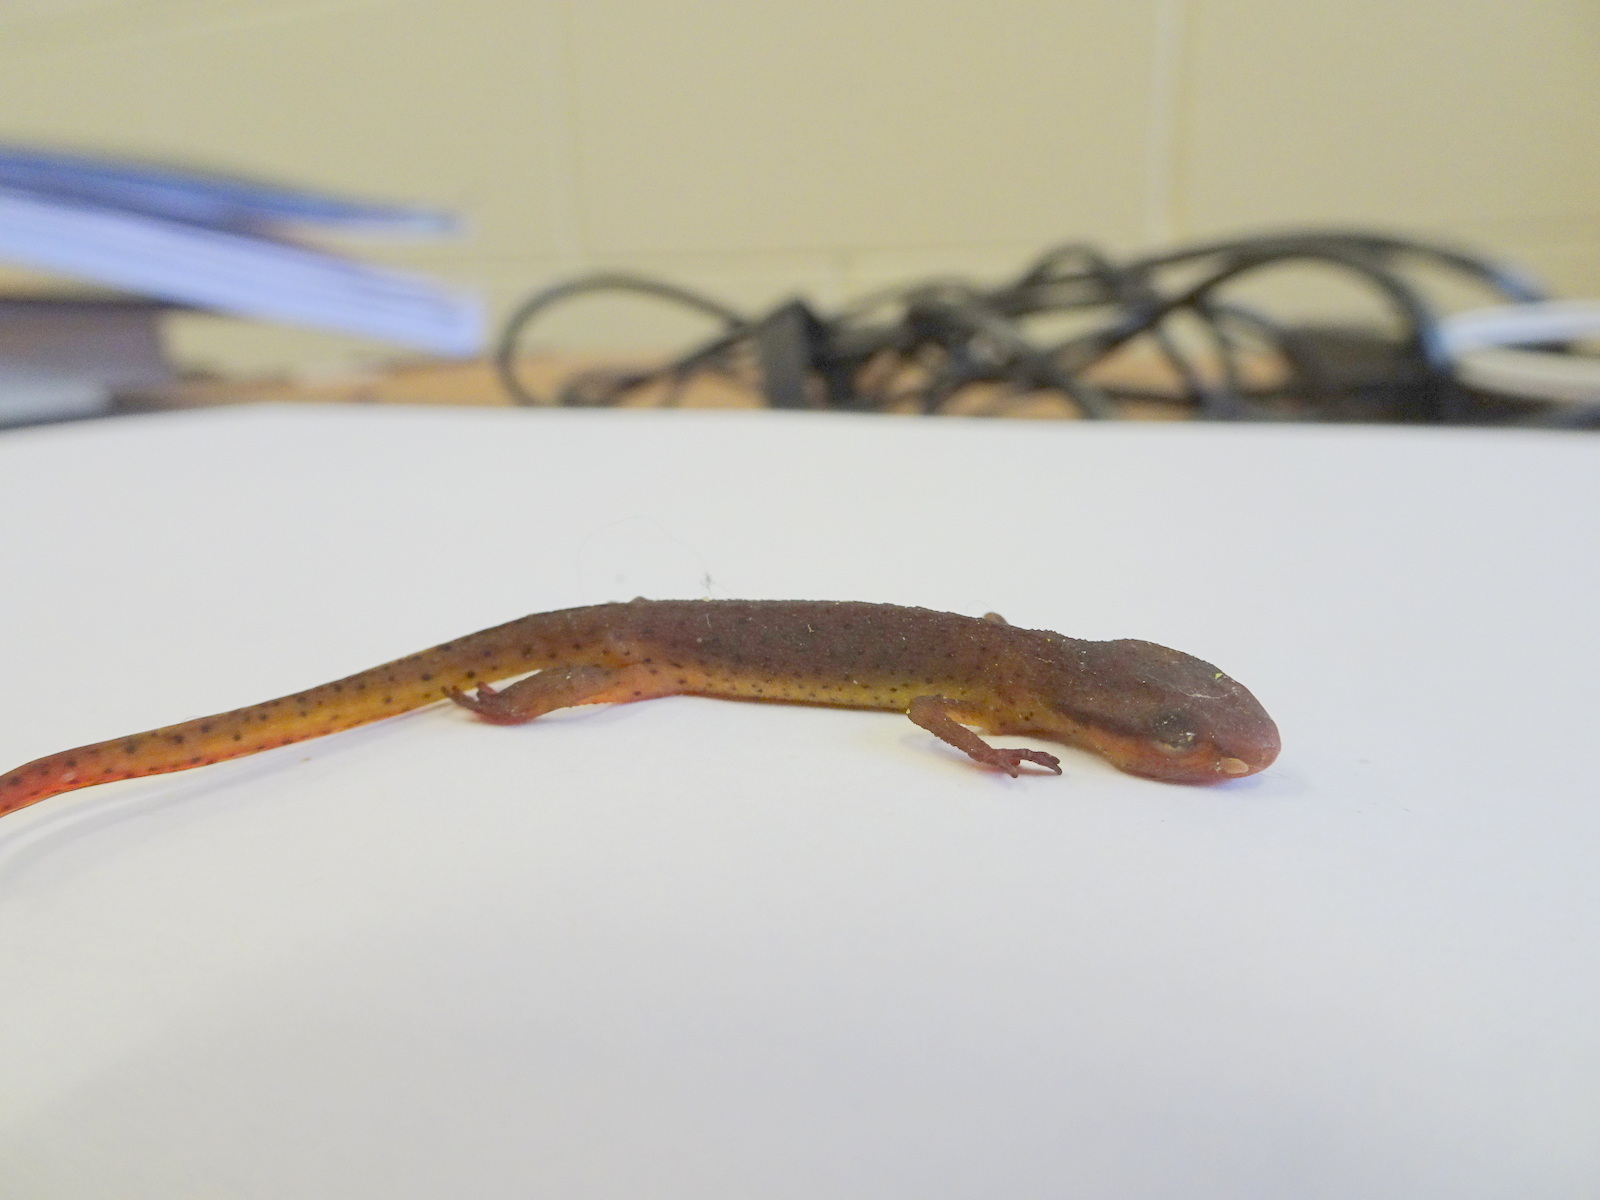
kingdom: Animalia
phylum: Chordata
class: Amphibia
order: Caudata
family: Salamandridae
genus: Notophthalmus
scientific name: Notophthalmus viridescens
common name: Eastern newt
